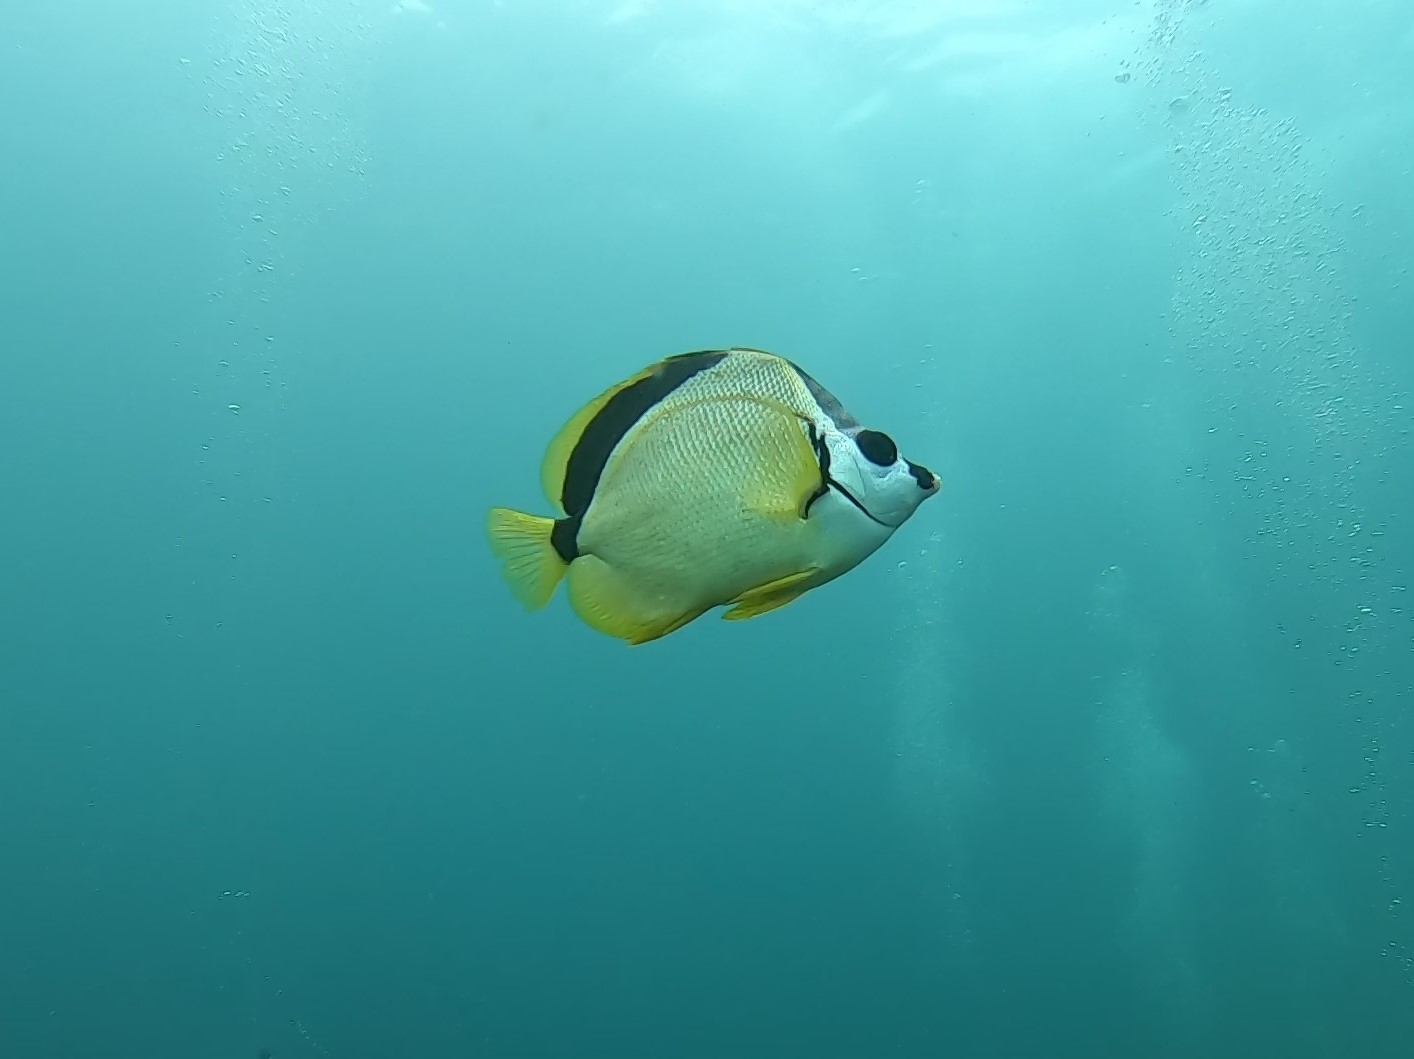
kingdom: Animalia
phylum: Chordata
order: Perciformes
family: Chaetodontidae
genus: Johnrandallia
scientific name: Johnrandallia nigrirostris
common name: Barberfish
